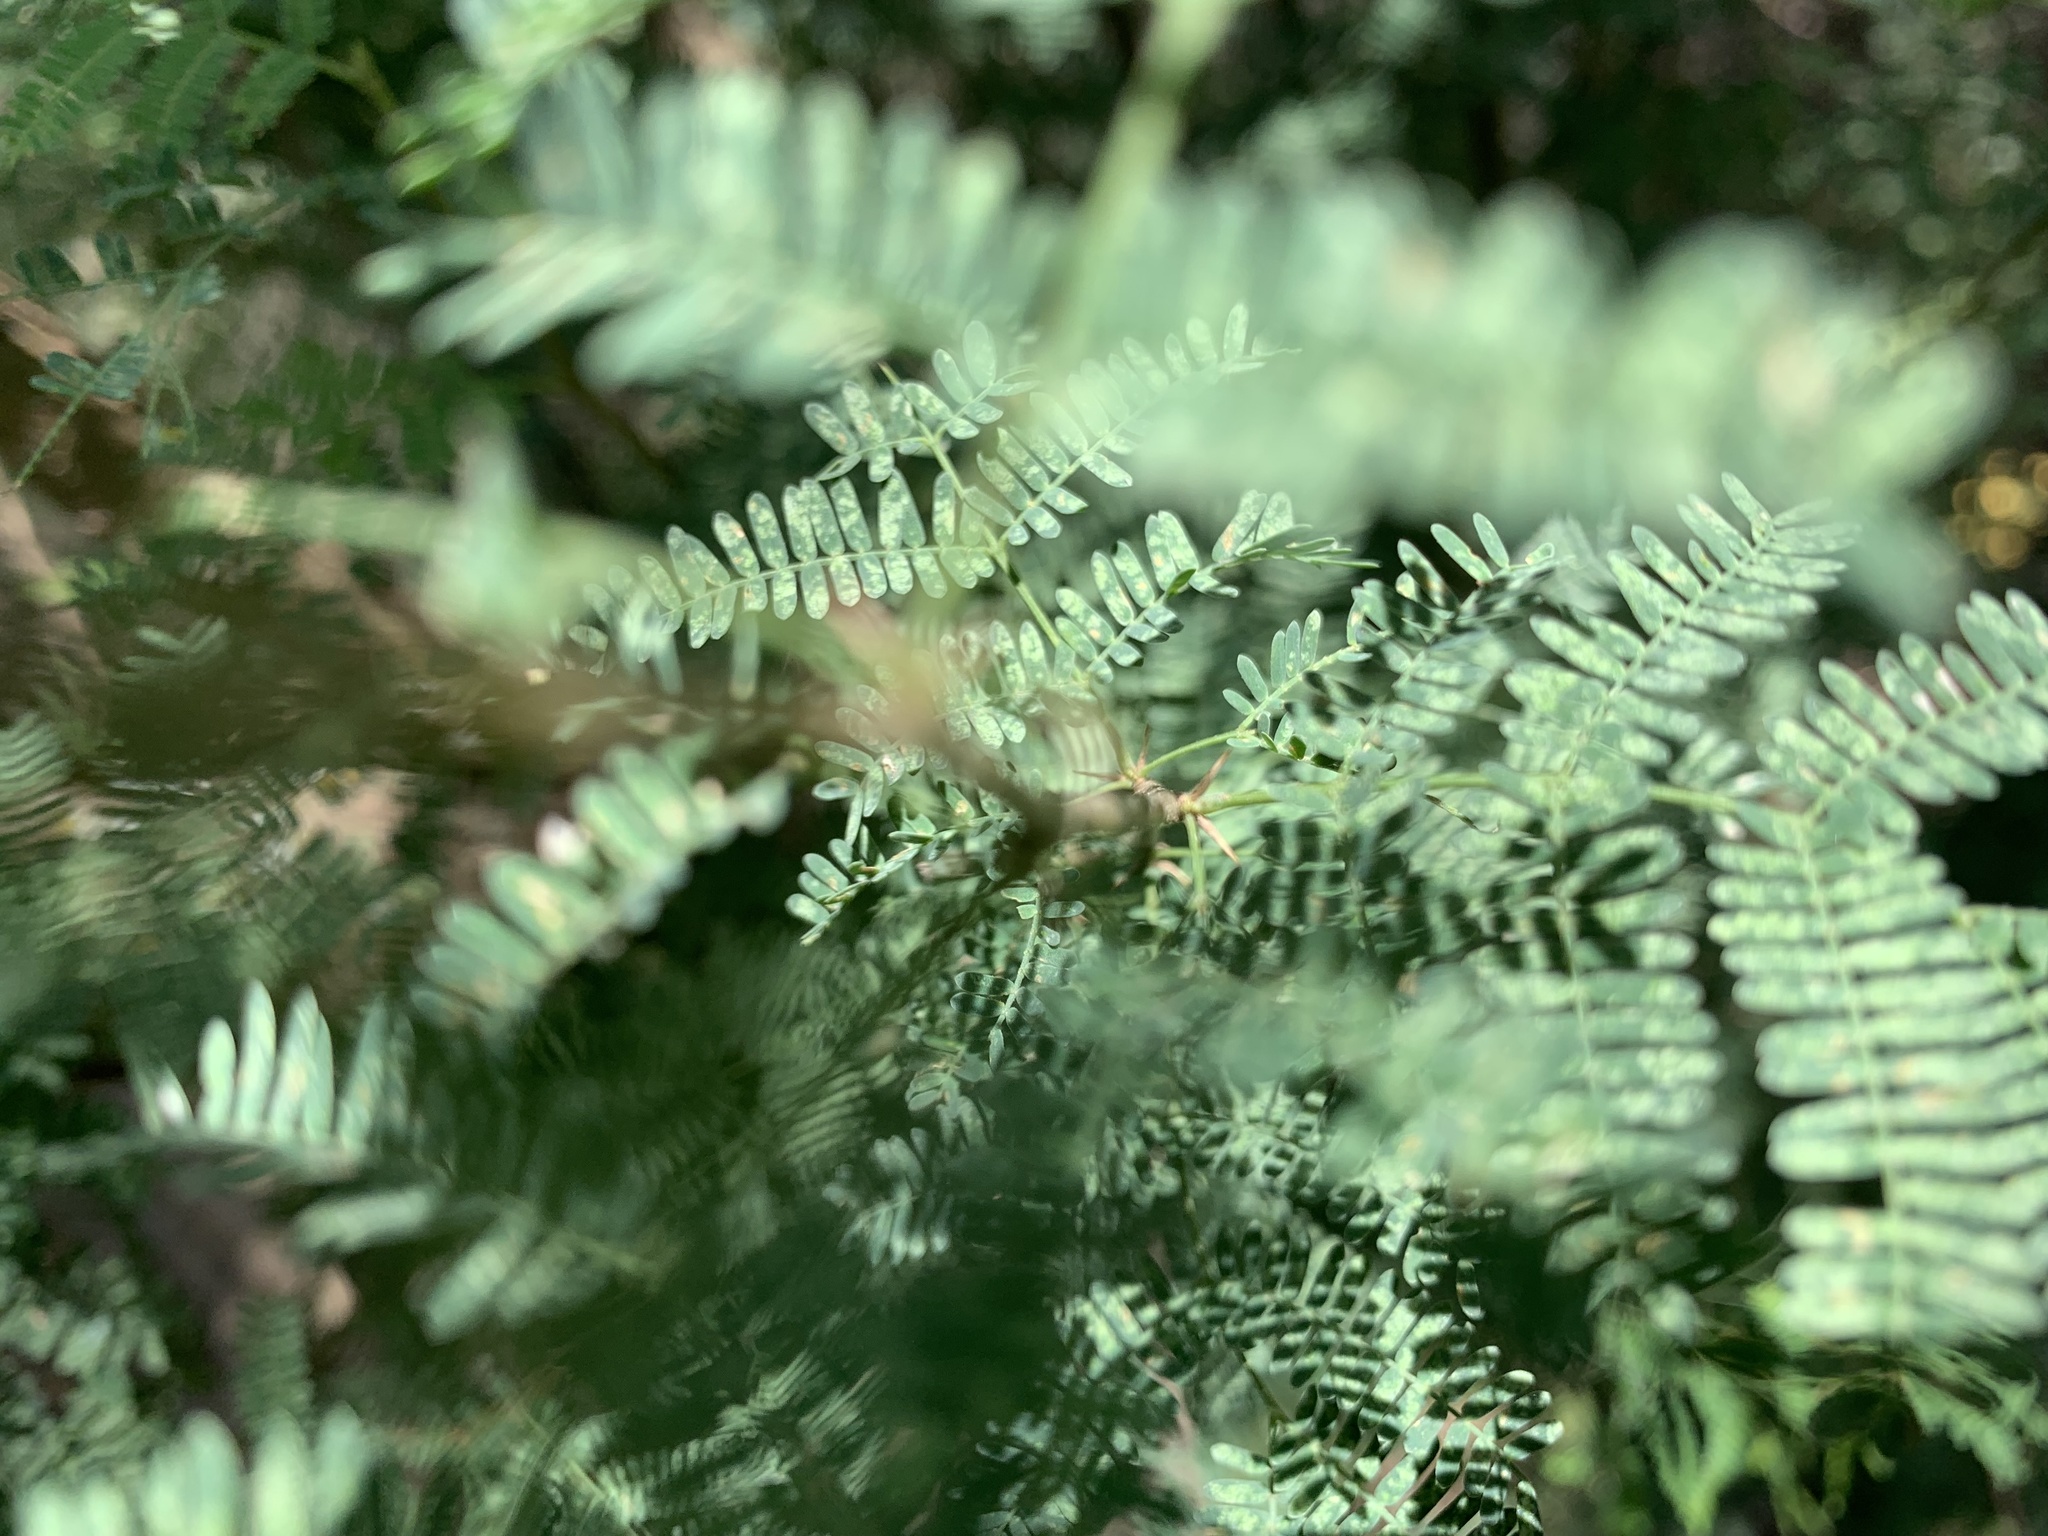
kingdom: Plantae
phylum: Tracheophyta
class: Magnoliopsida
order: Fabales
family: Fabaceae
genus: Vachellia
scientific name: Vachellia farnesiana
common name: Sweet acacia
